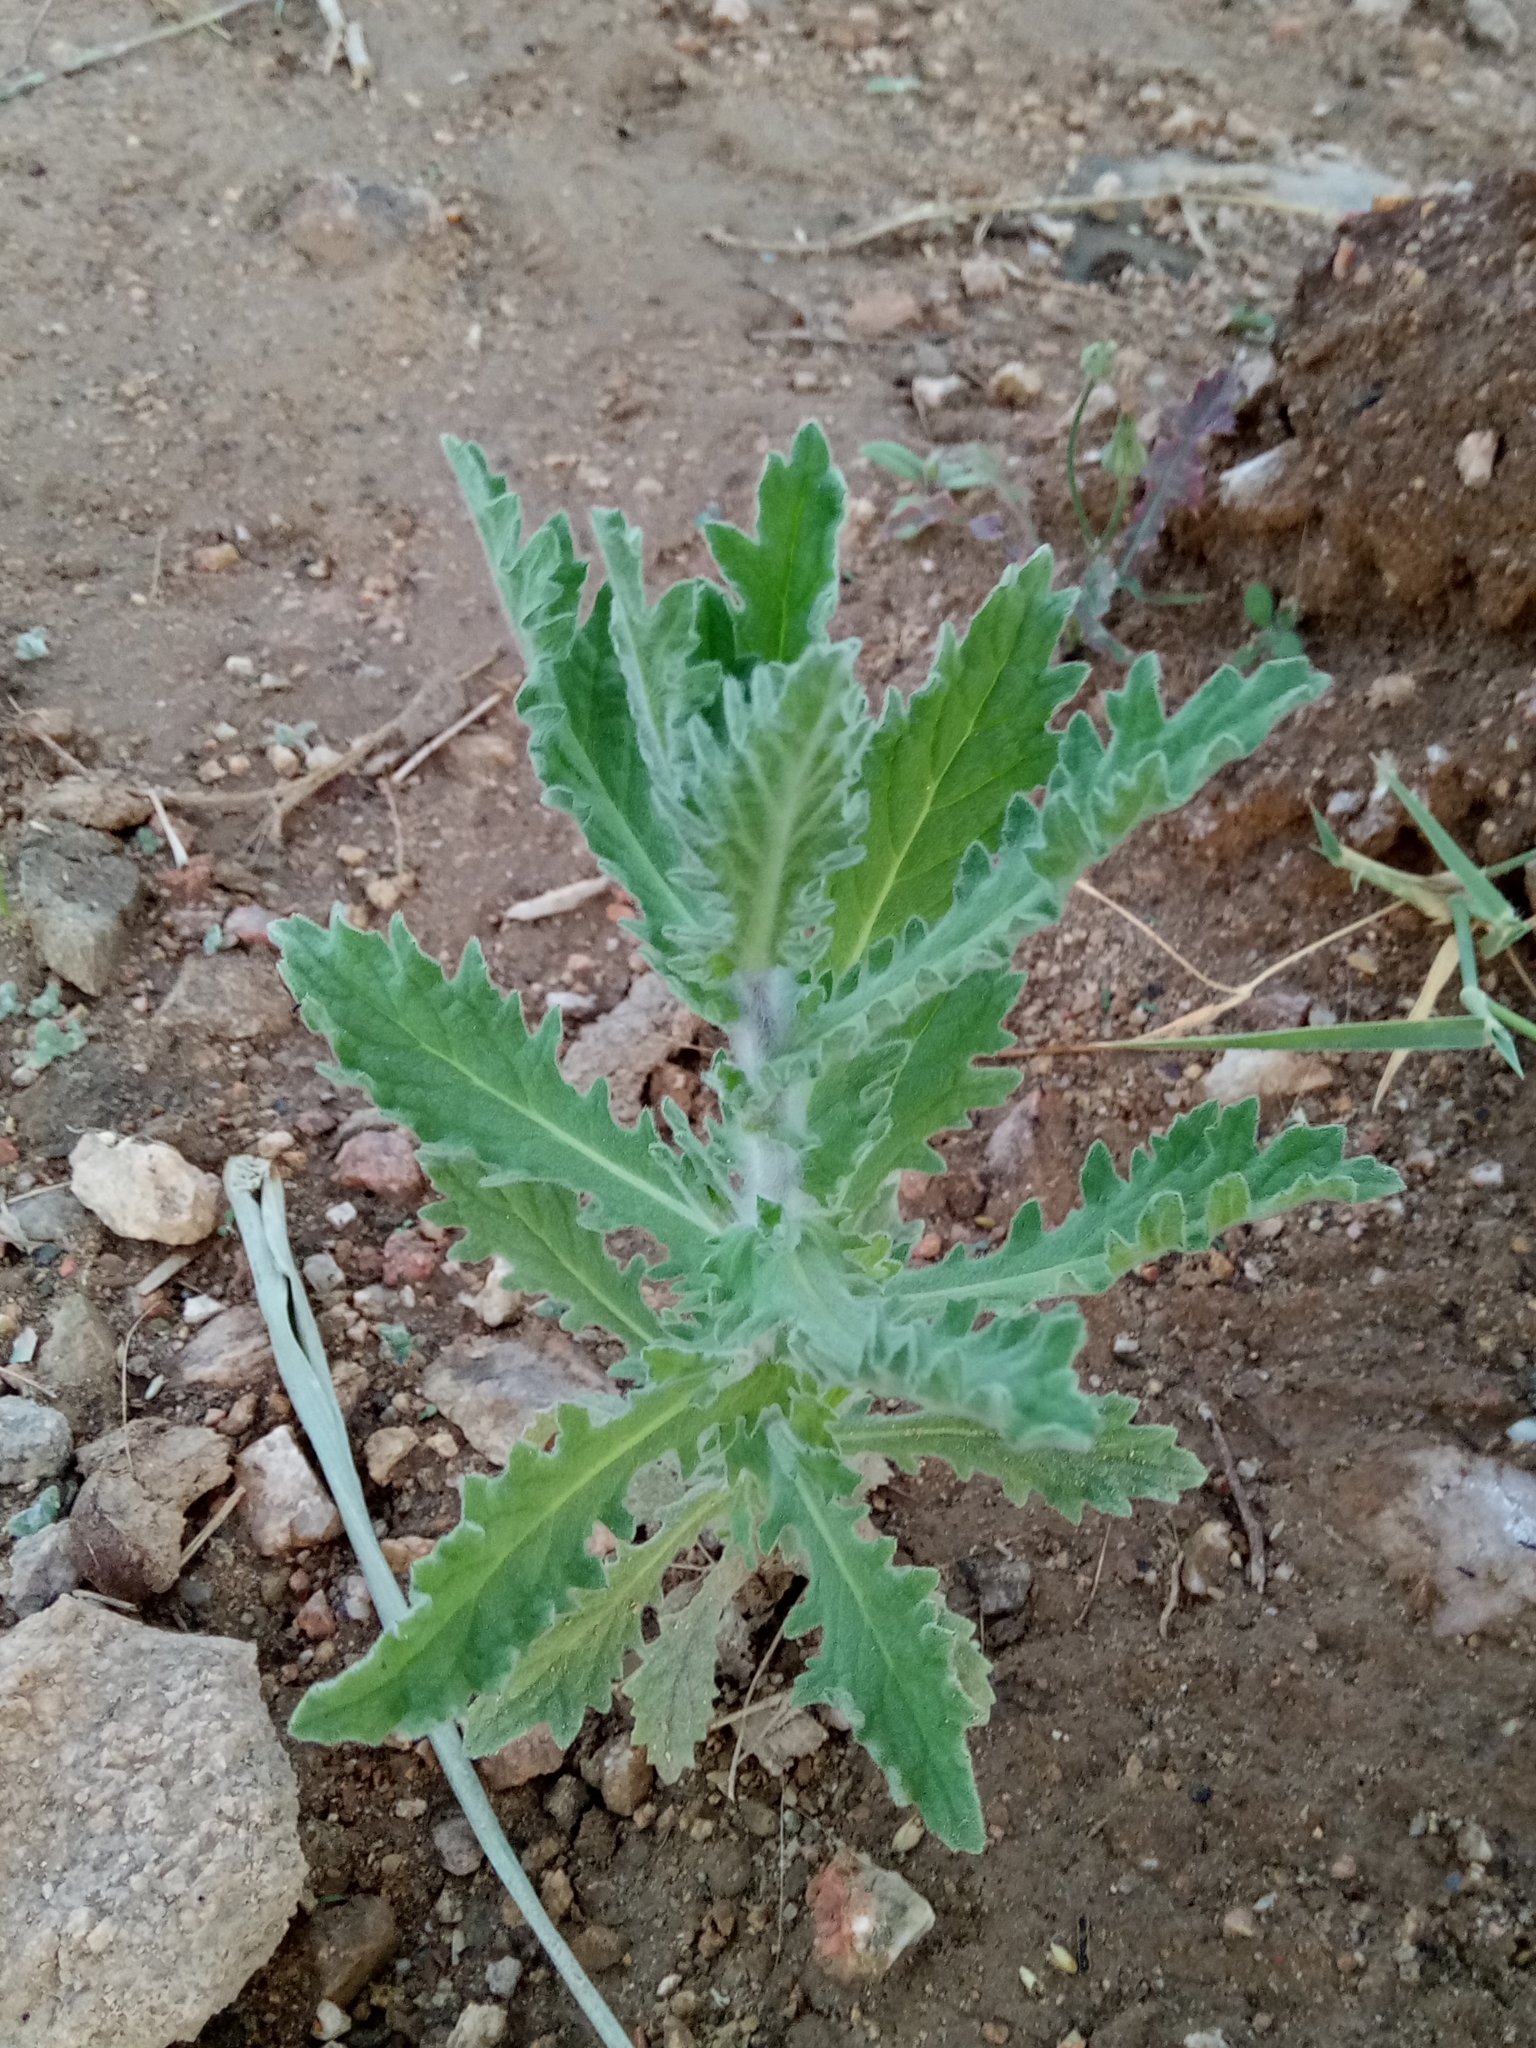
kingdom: Plantae
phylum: Tracheophyta
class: Magnoliopsida
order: Asterales
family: Asteraceae
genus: Laennecia
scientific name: Laennecia coulteri
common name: Coulter's woolwort
